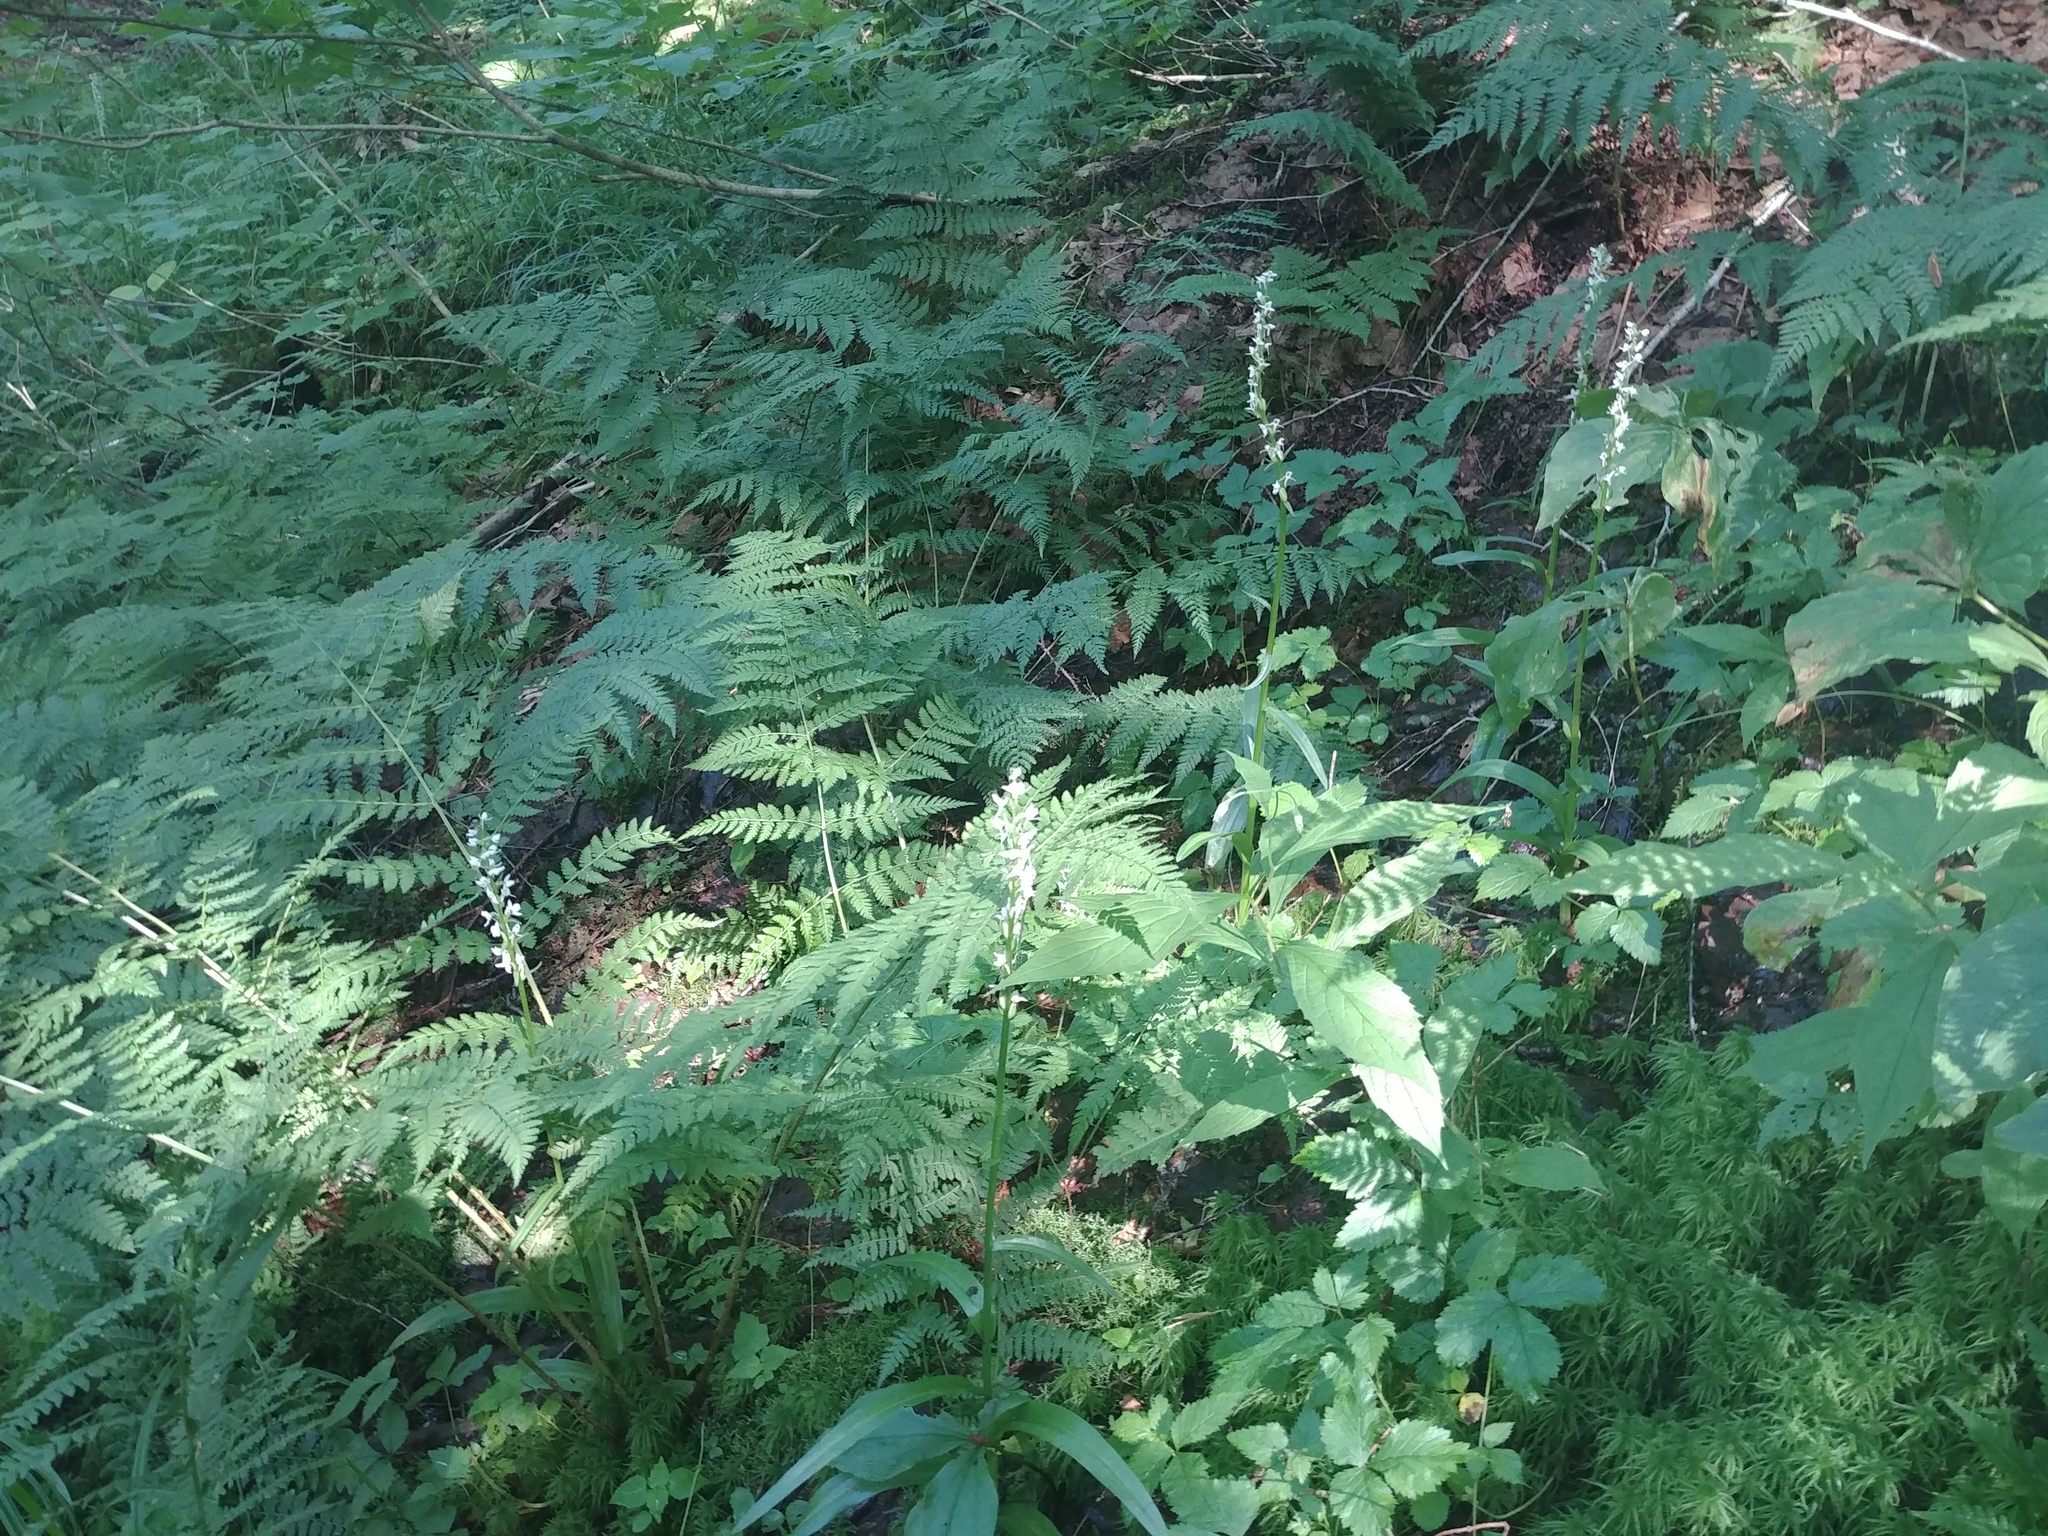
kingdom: Plantae
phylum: Tracheophyta
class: Liliopsida
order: Asparagales
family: Orchidaceae
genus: Platanthera
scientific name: Platanthera dilatata
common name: Bog candles
